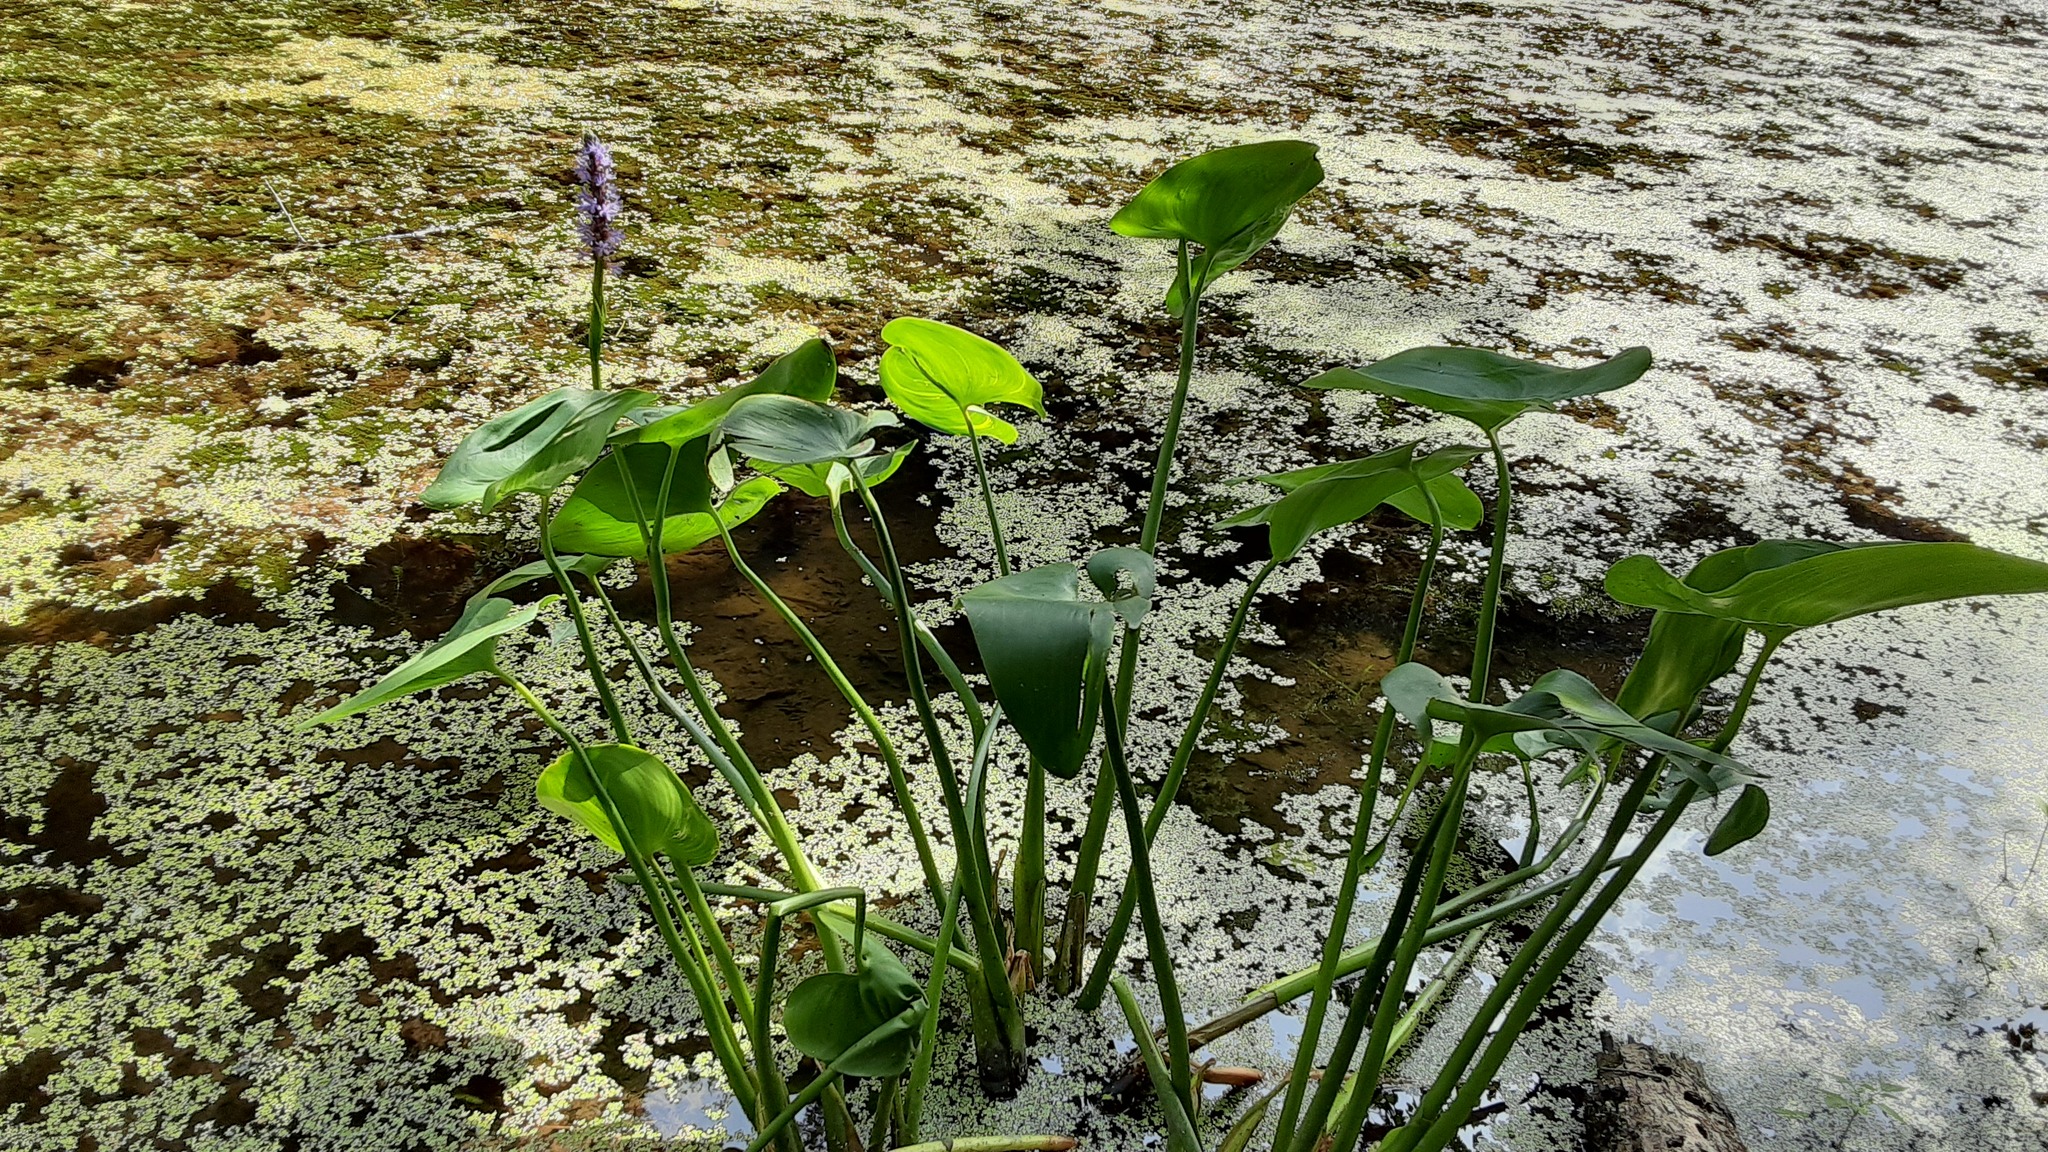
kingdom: Plantae
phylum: Tracheophyta
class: Liliopsida
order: Commelinales
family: Pontederiaceae
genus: Pontederia
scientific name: Pontederia cordata
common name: Pickerelweed
